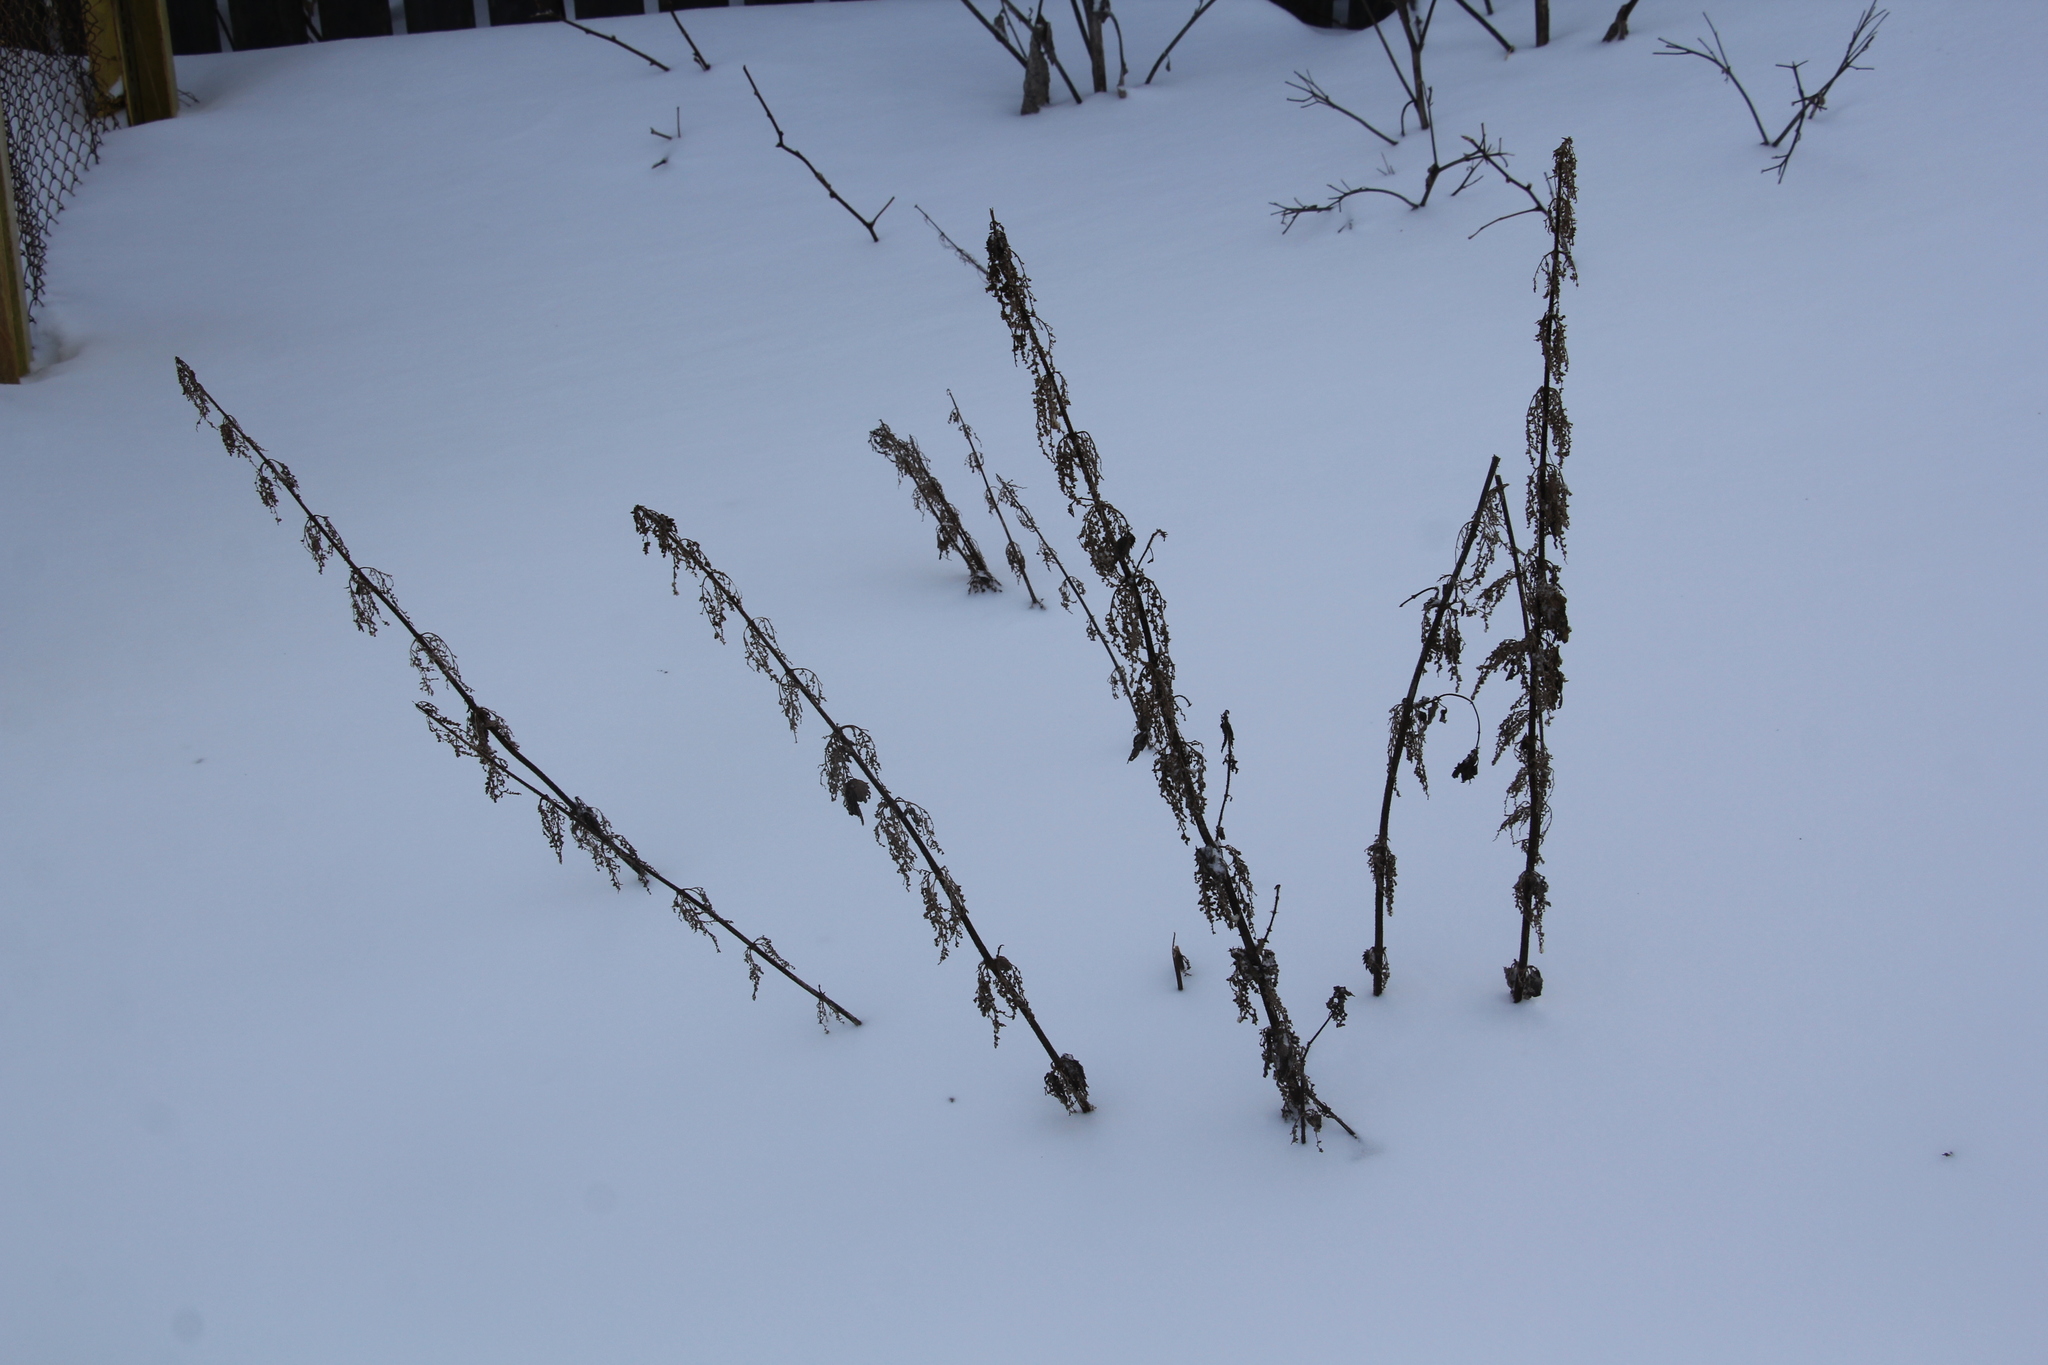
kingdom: Plantae
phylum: Tracheophyta
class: Magnoliopsida
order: Rosales
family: Urticaceae
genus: Urtica
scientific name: Urtica dioica
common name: Common nettle
